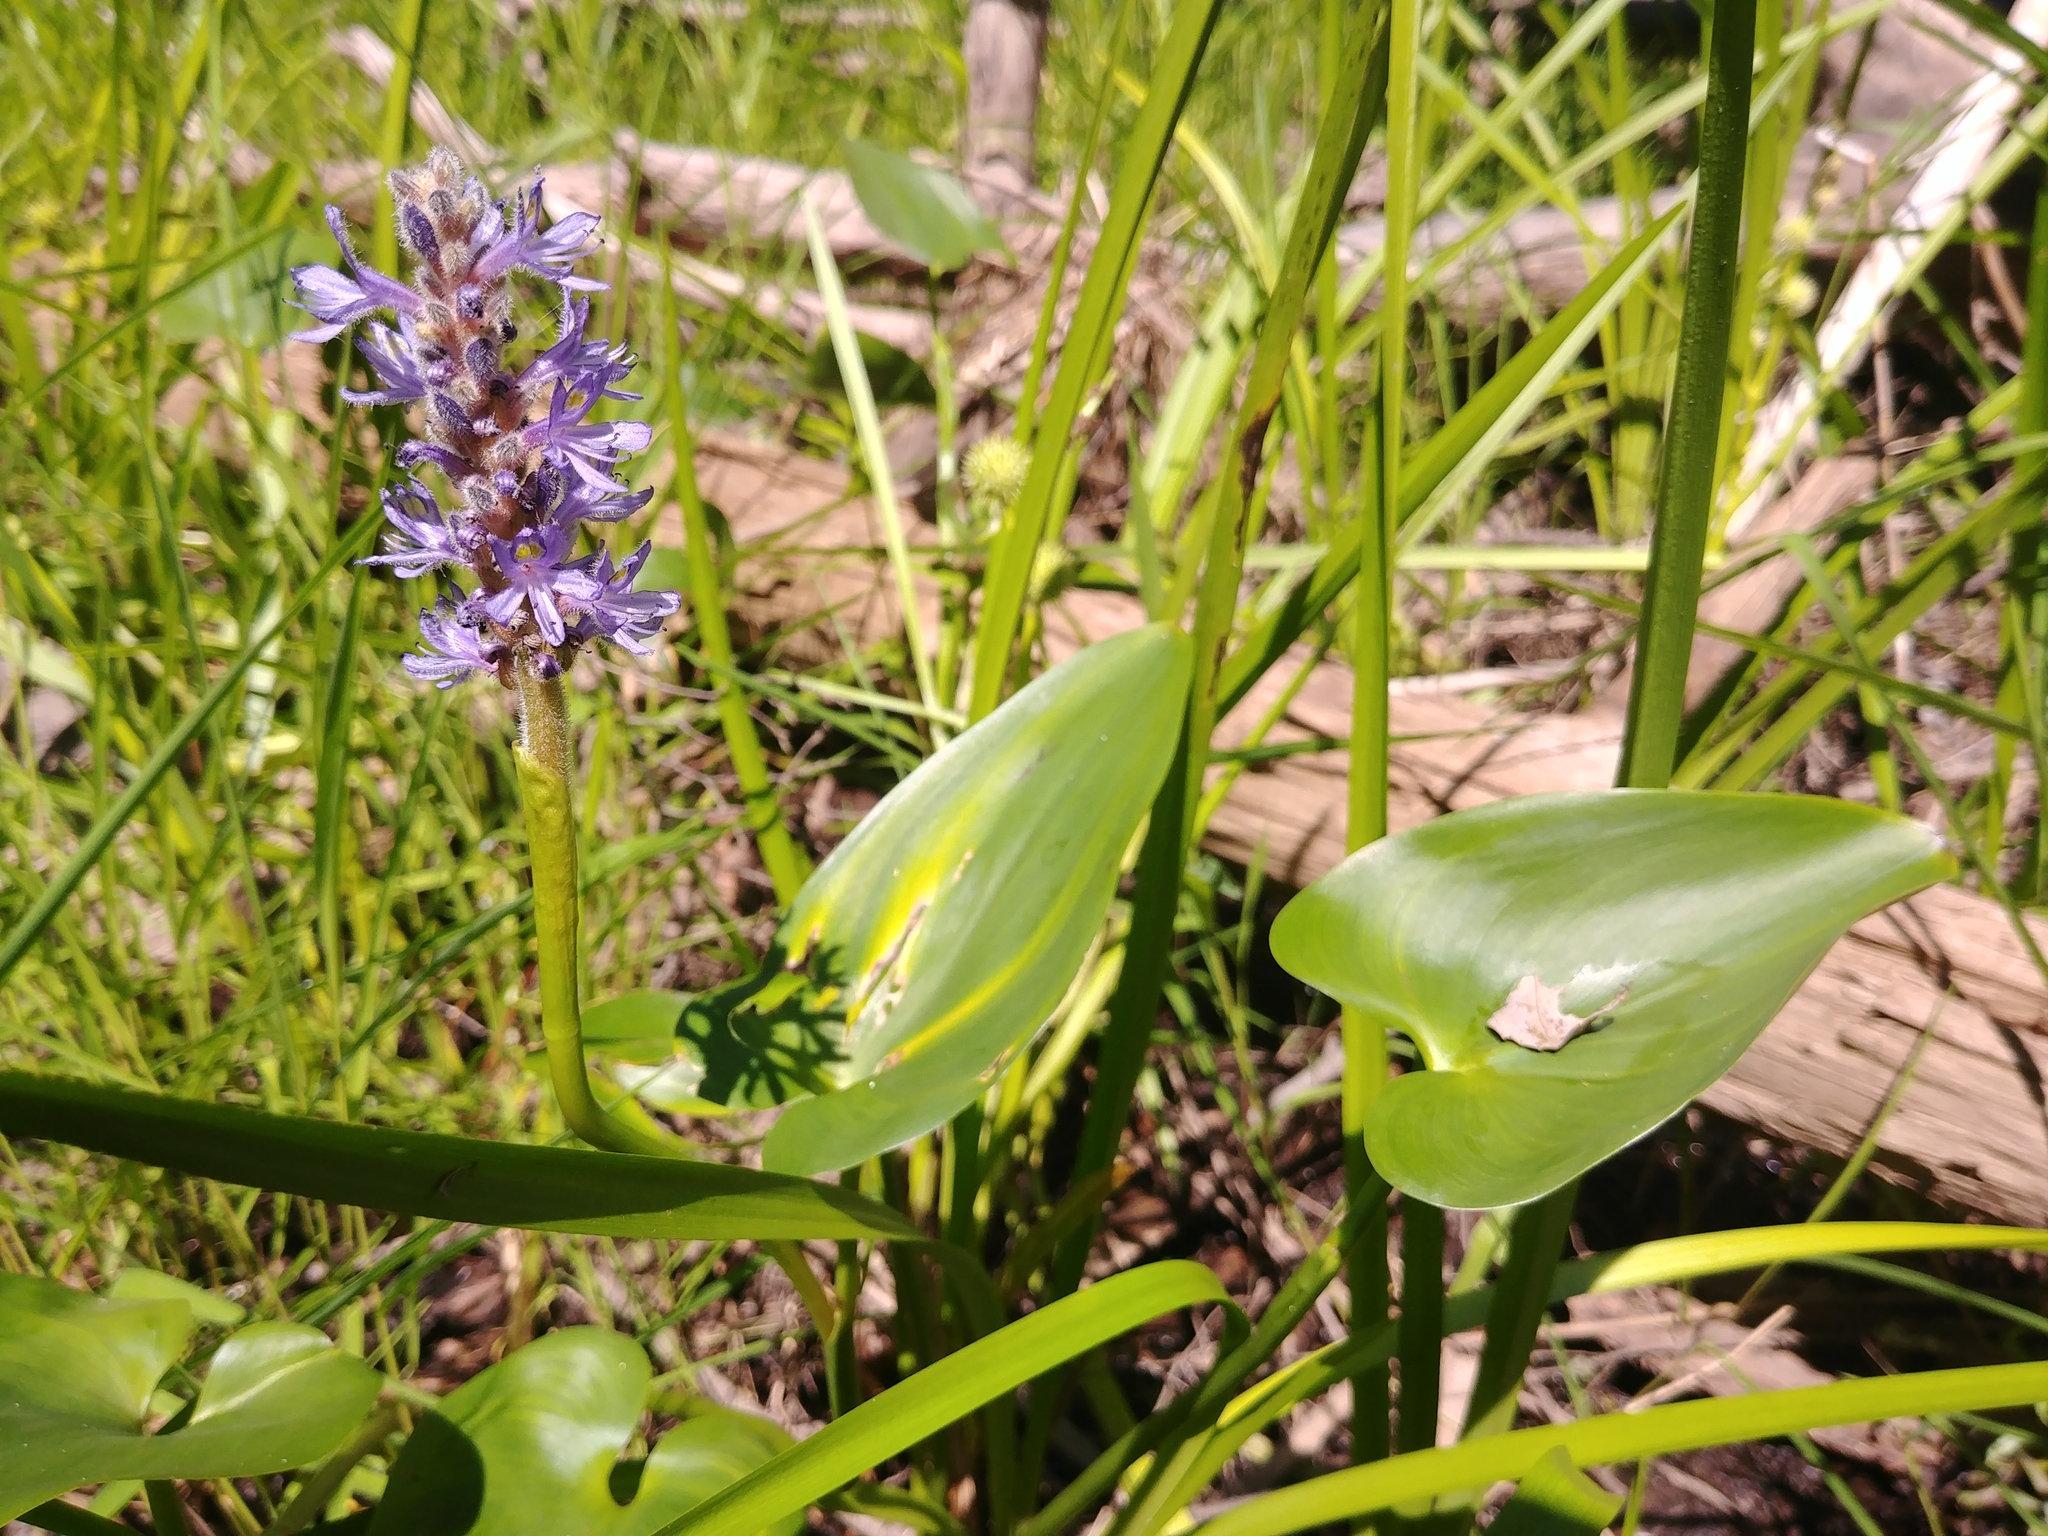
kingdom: Plantae
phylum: Tracheophyta
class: Liliopsida
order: Commelinales
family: Pontederiaceae
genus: Pontederia
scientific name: Pontederia cordata
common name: Pickerelweed
